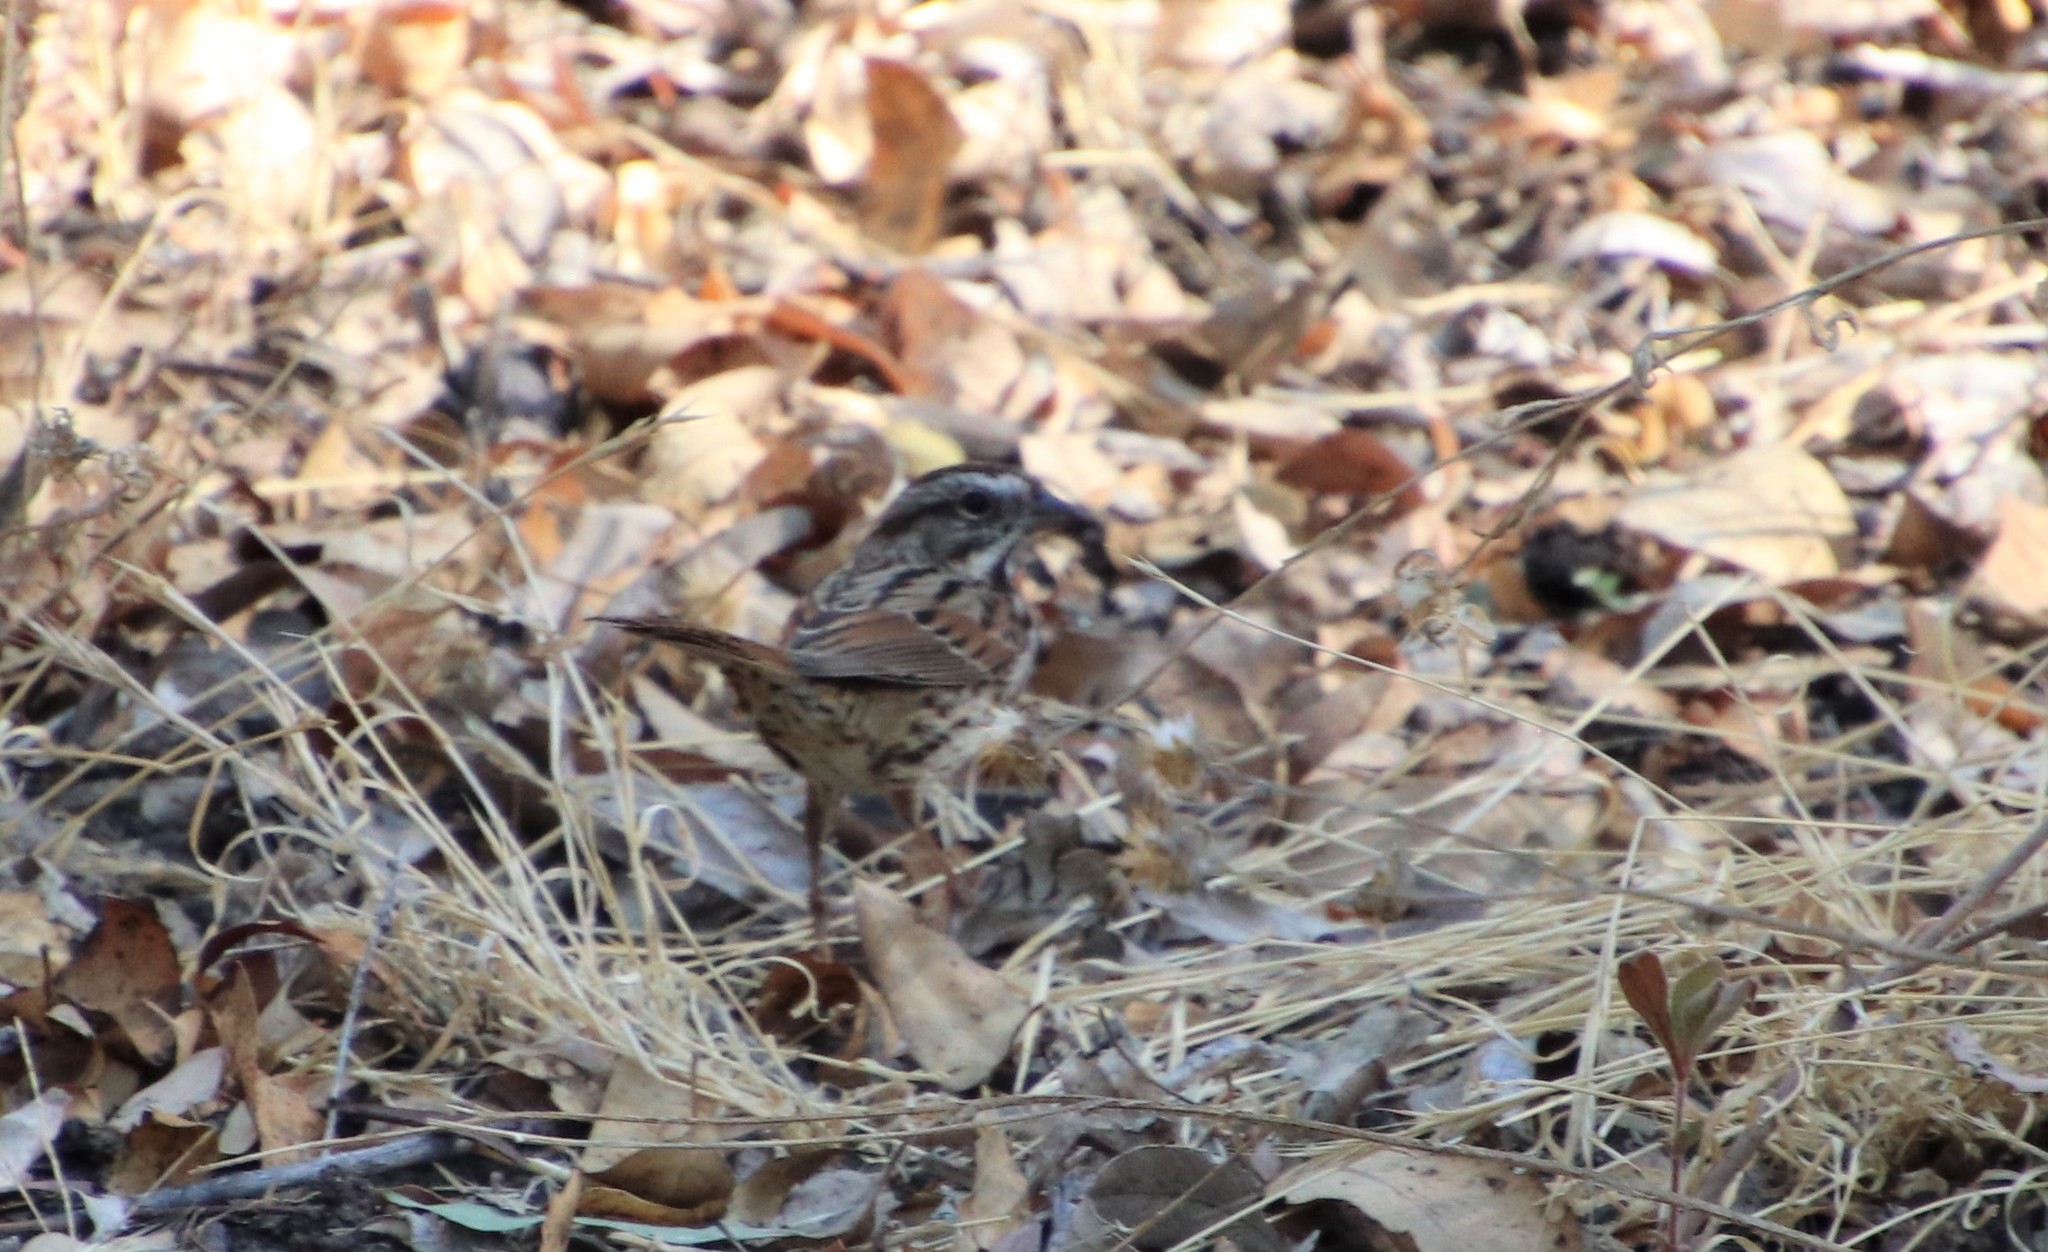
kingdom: Animalia
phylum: Chordata
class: Aves
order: Passeriformes
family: Passerellidae
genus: Melospiza
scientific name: Melospiza melodia
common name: Song sparrow
